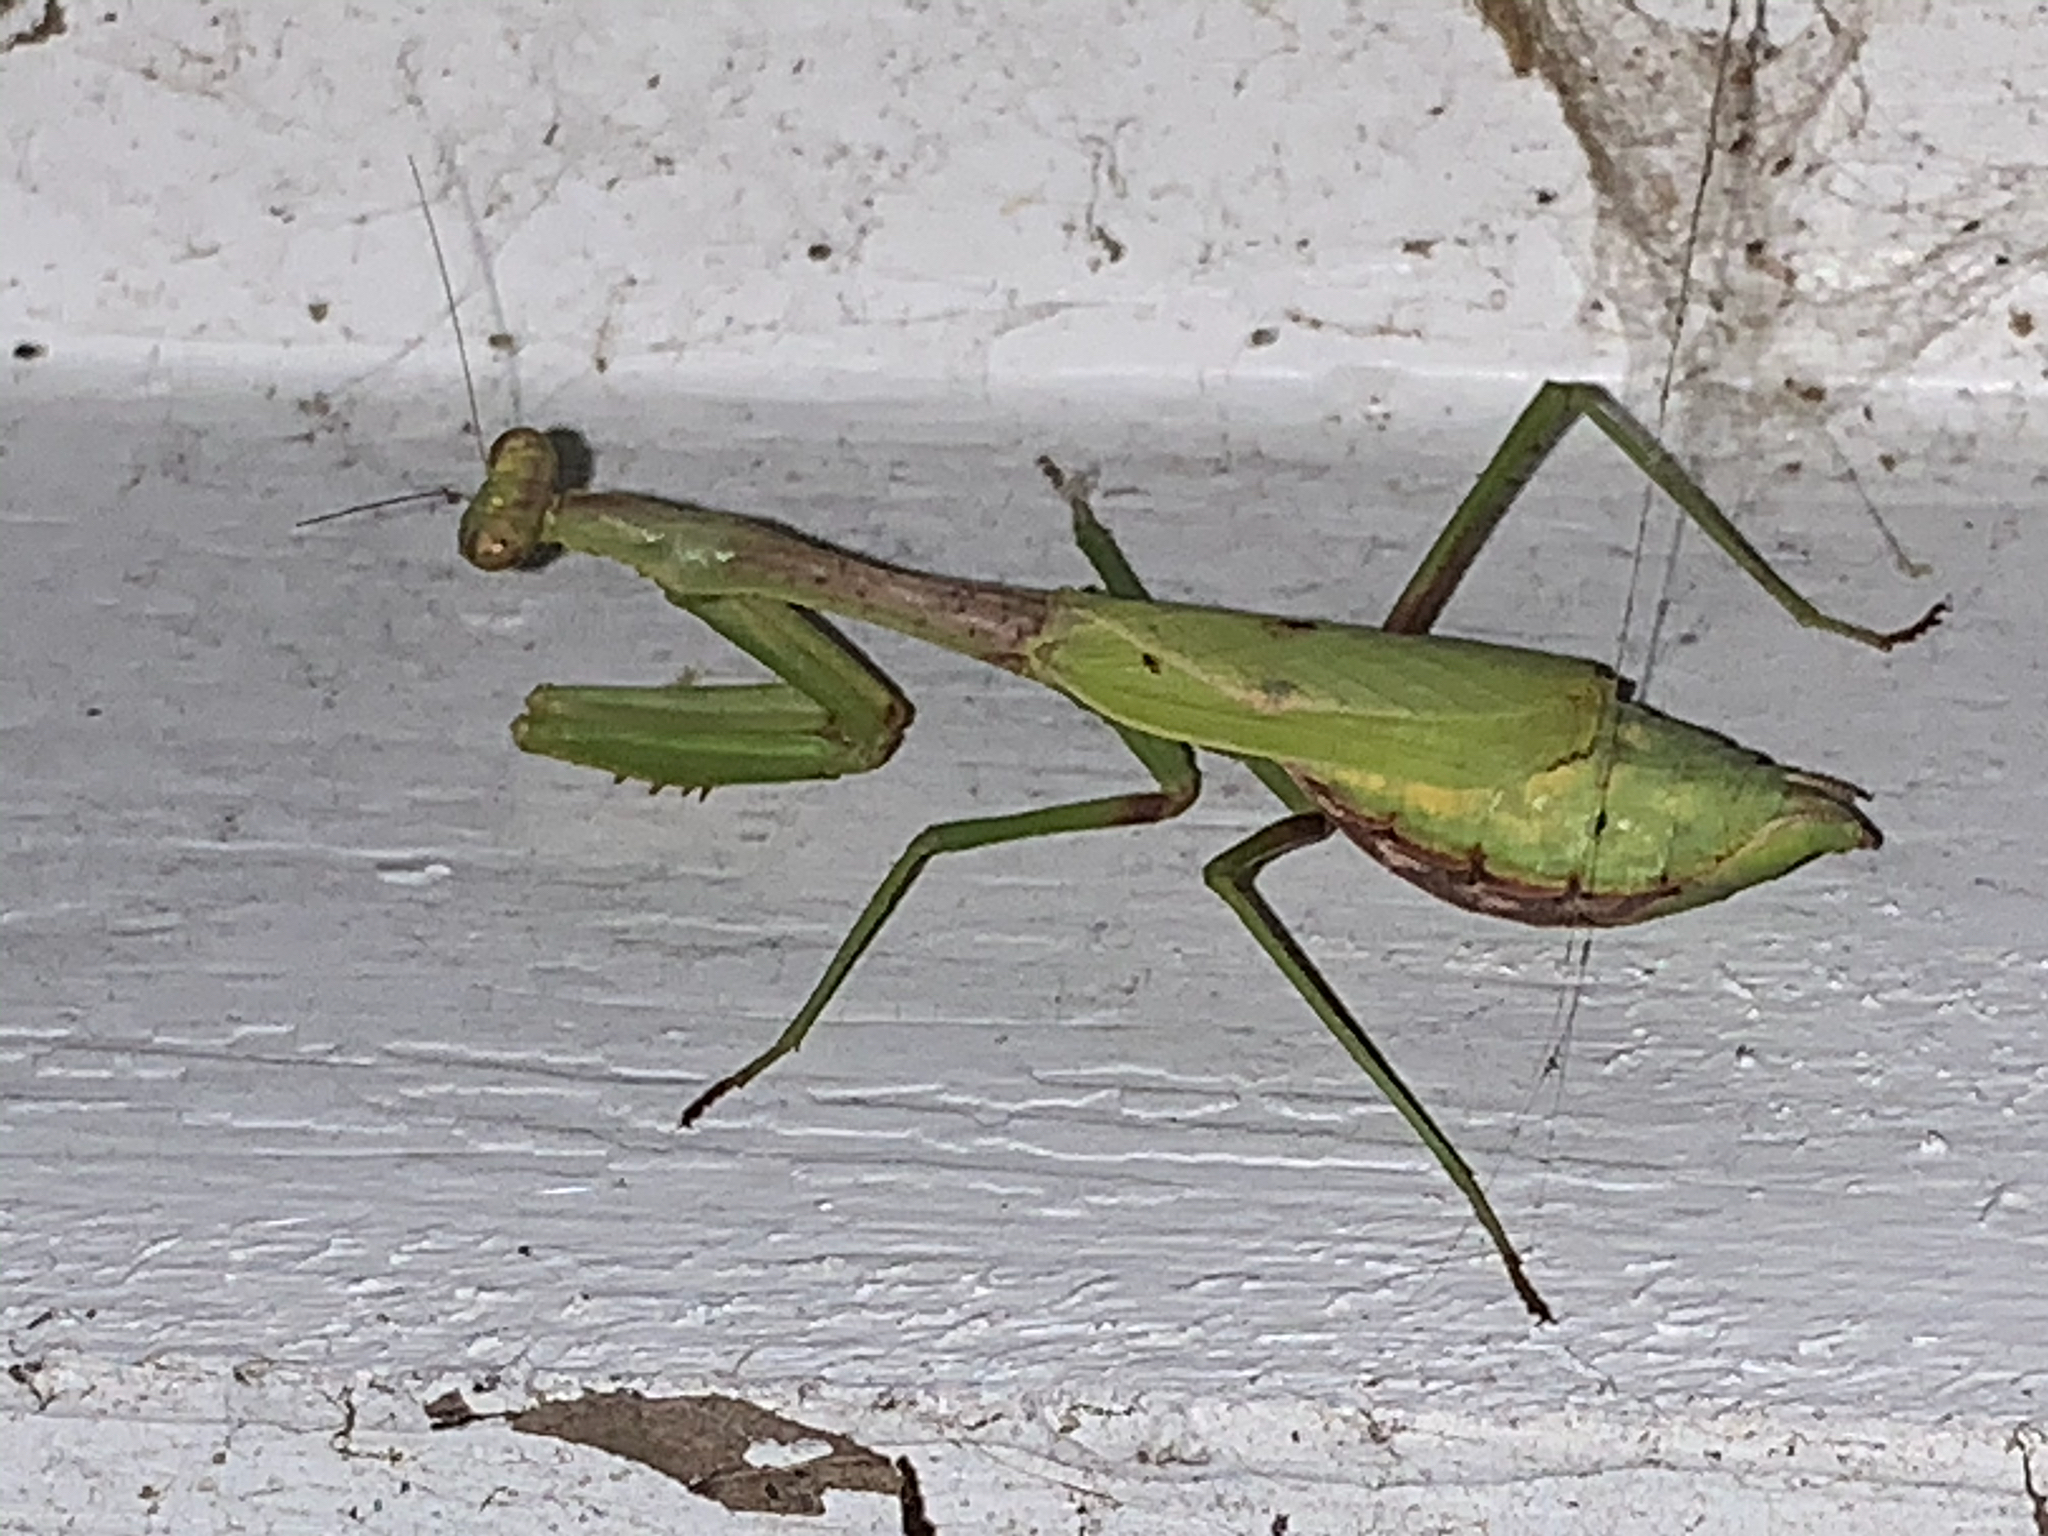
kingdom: Animalia
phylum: Arthropoda
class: Insecta
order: Mantodea
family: Mantidae
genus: Stagmomantis
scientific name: Stagmomantis carolina
